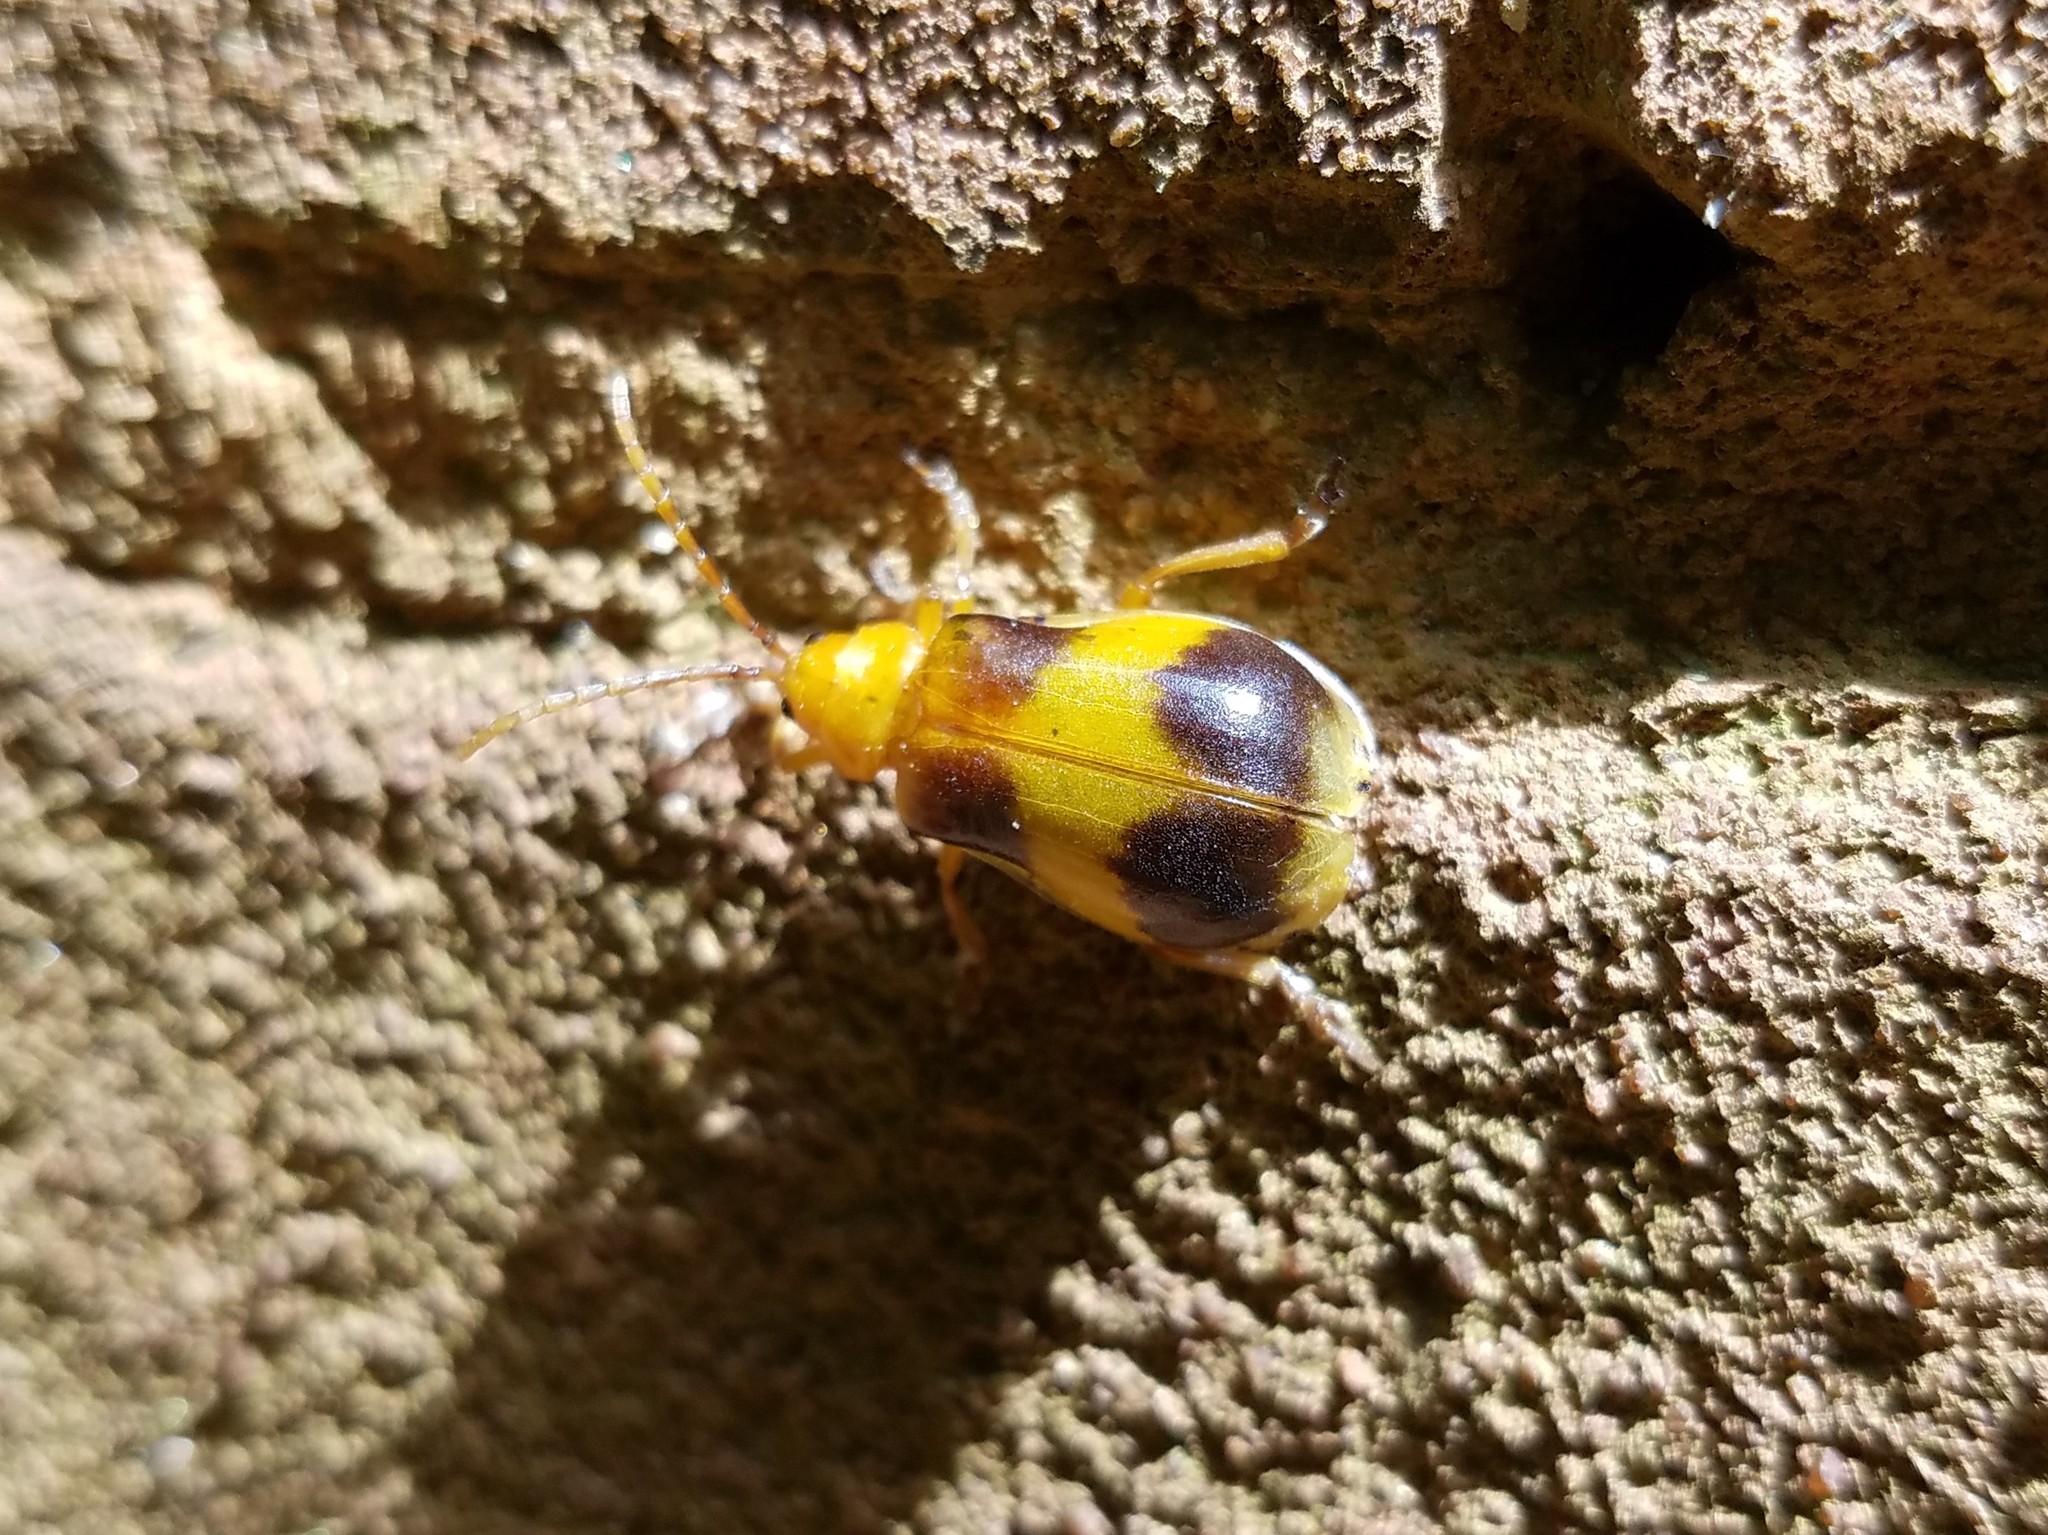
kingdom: Animalia
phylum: Arthropoda
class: Insecta
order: Coleoptera
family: Chrysomelidae
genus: Monocesta
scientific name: Monocesta coryli
